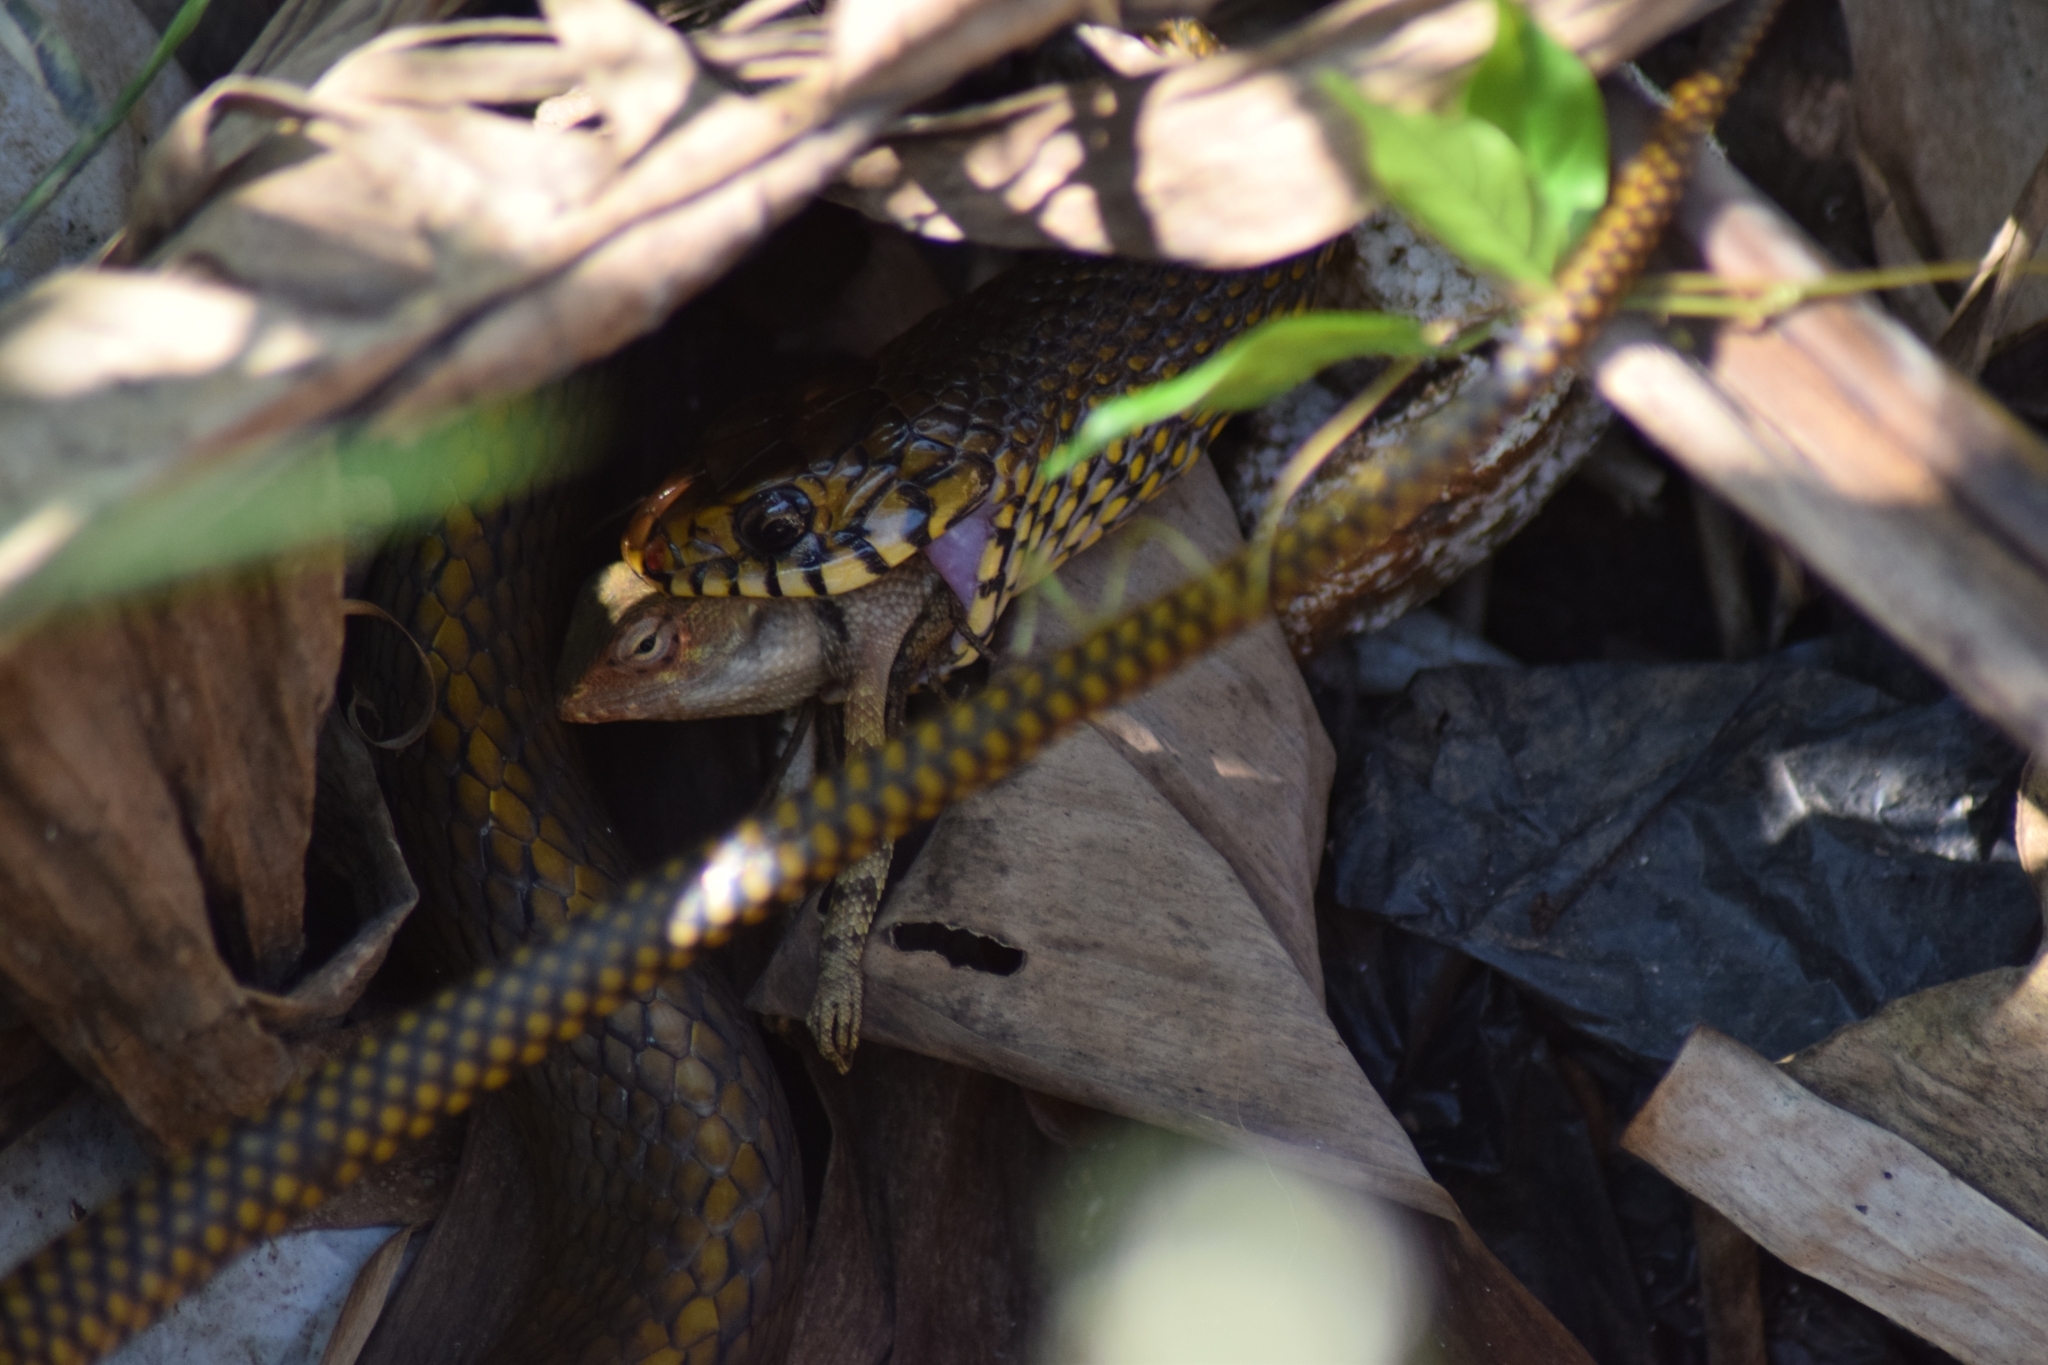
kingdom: Animalia
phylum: Chordata
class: Squamata
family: Colubridae
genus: Ptyas
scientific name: Ptyas mucosa
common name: Oriental ratsnake
